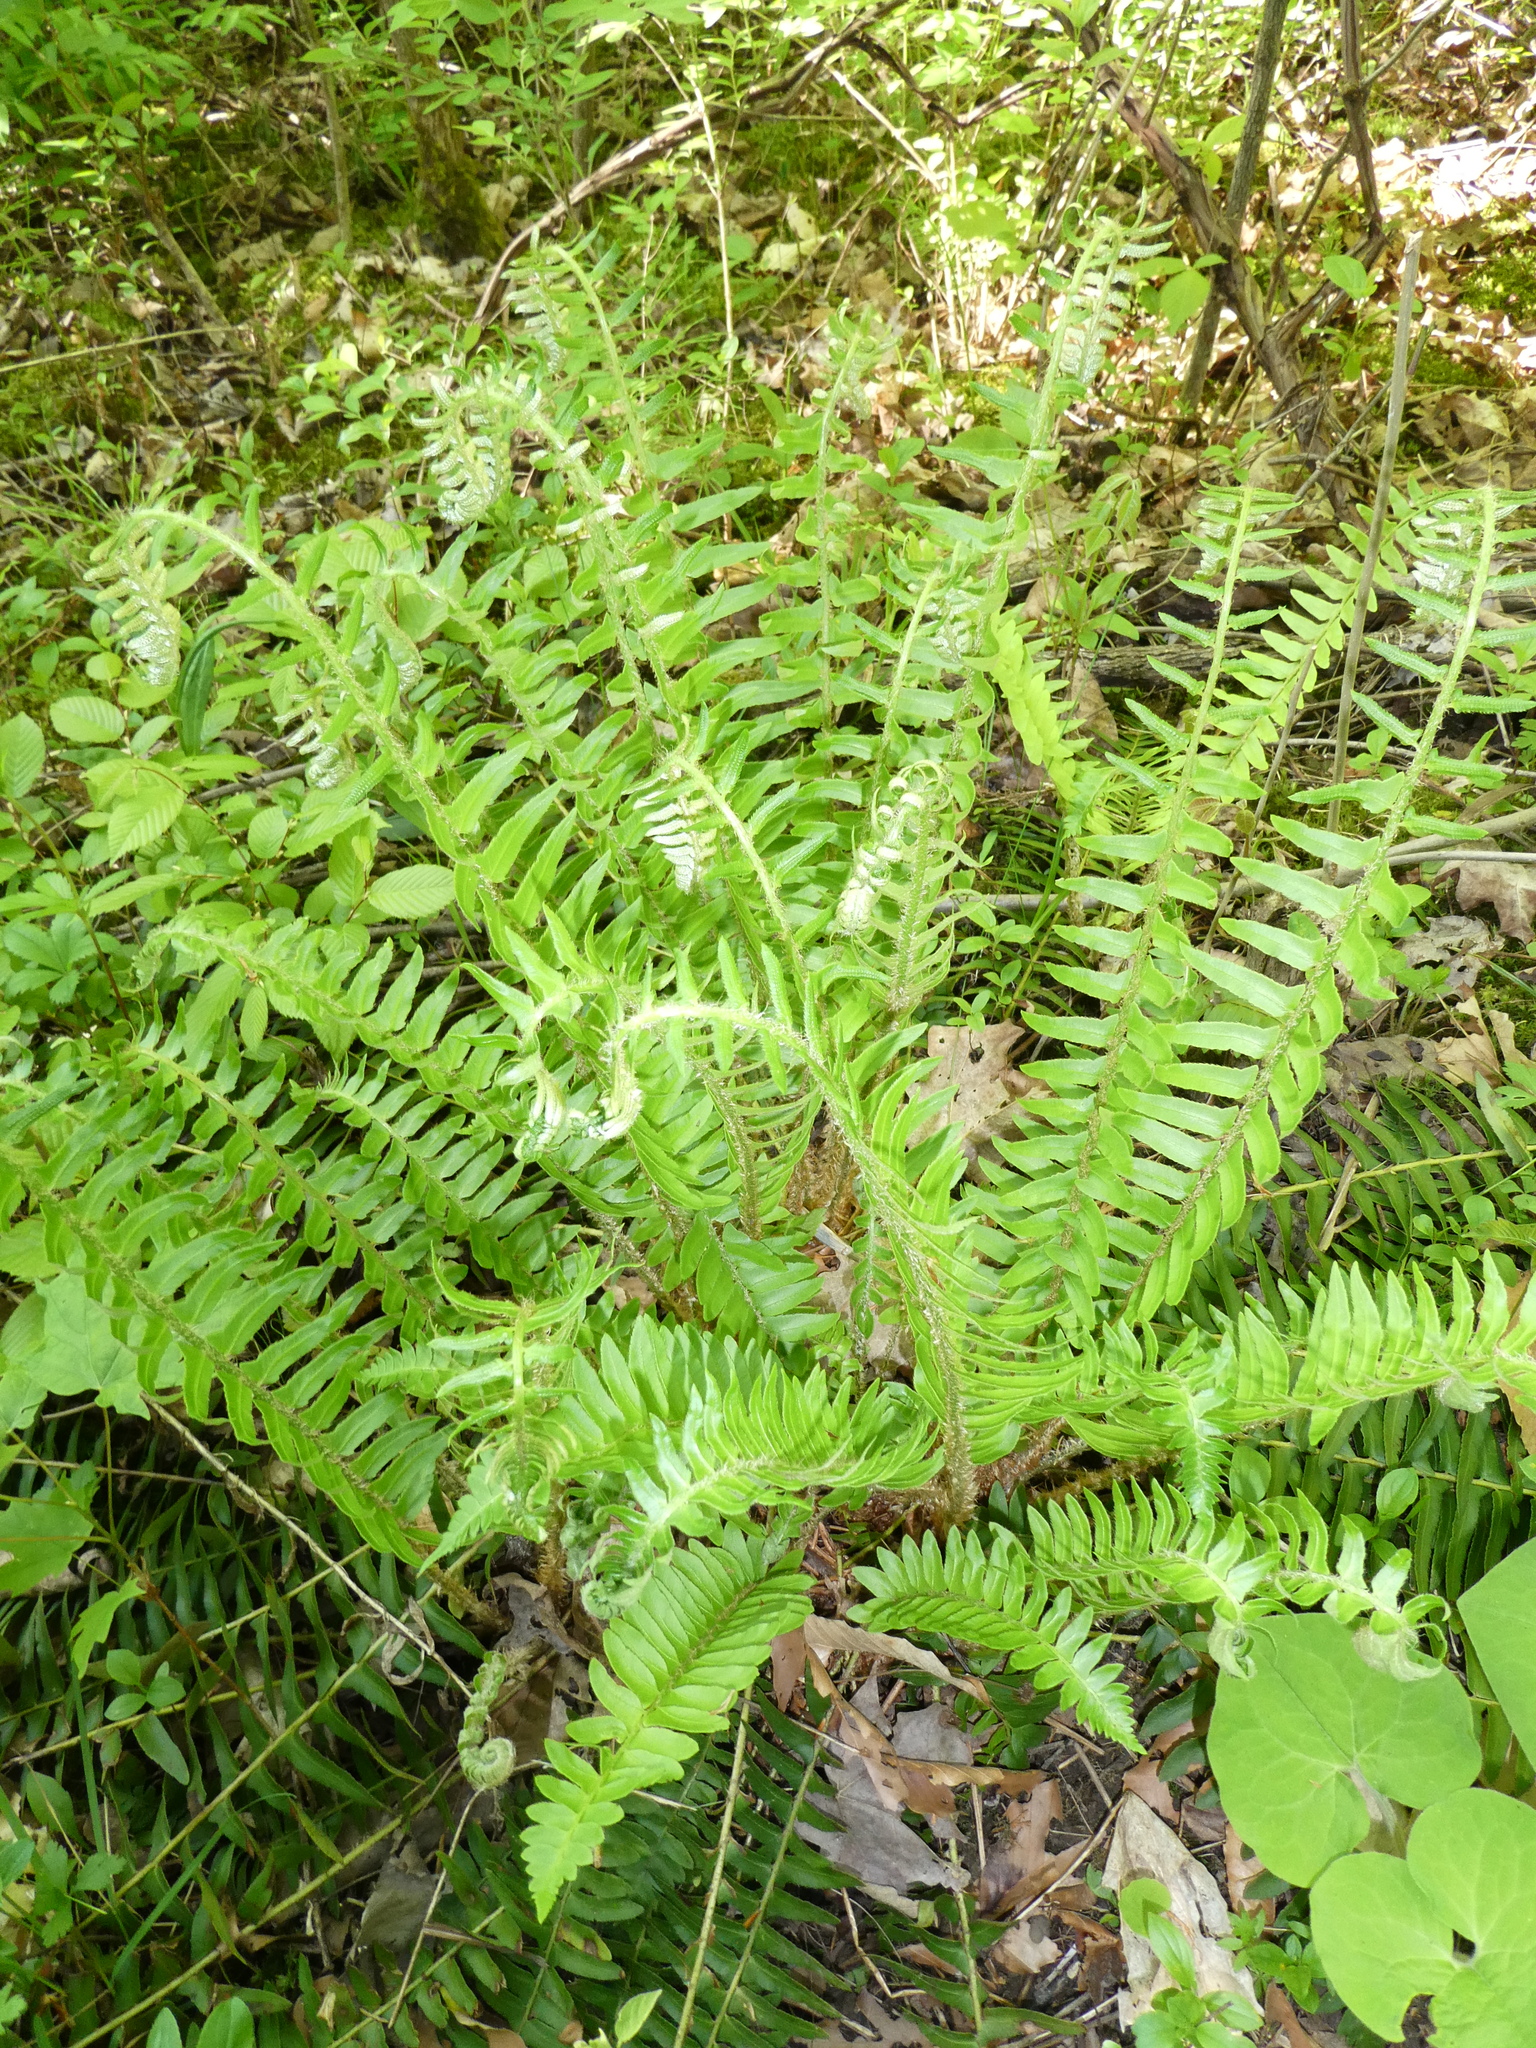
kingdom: Plantae
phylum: Tracheophyta
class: Polypodiopsida
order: Polypodiales
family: Dryopteridaceae
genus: Polystichum
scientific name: Polystichum acrostichoides
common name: Christmas fern
